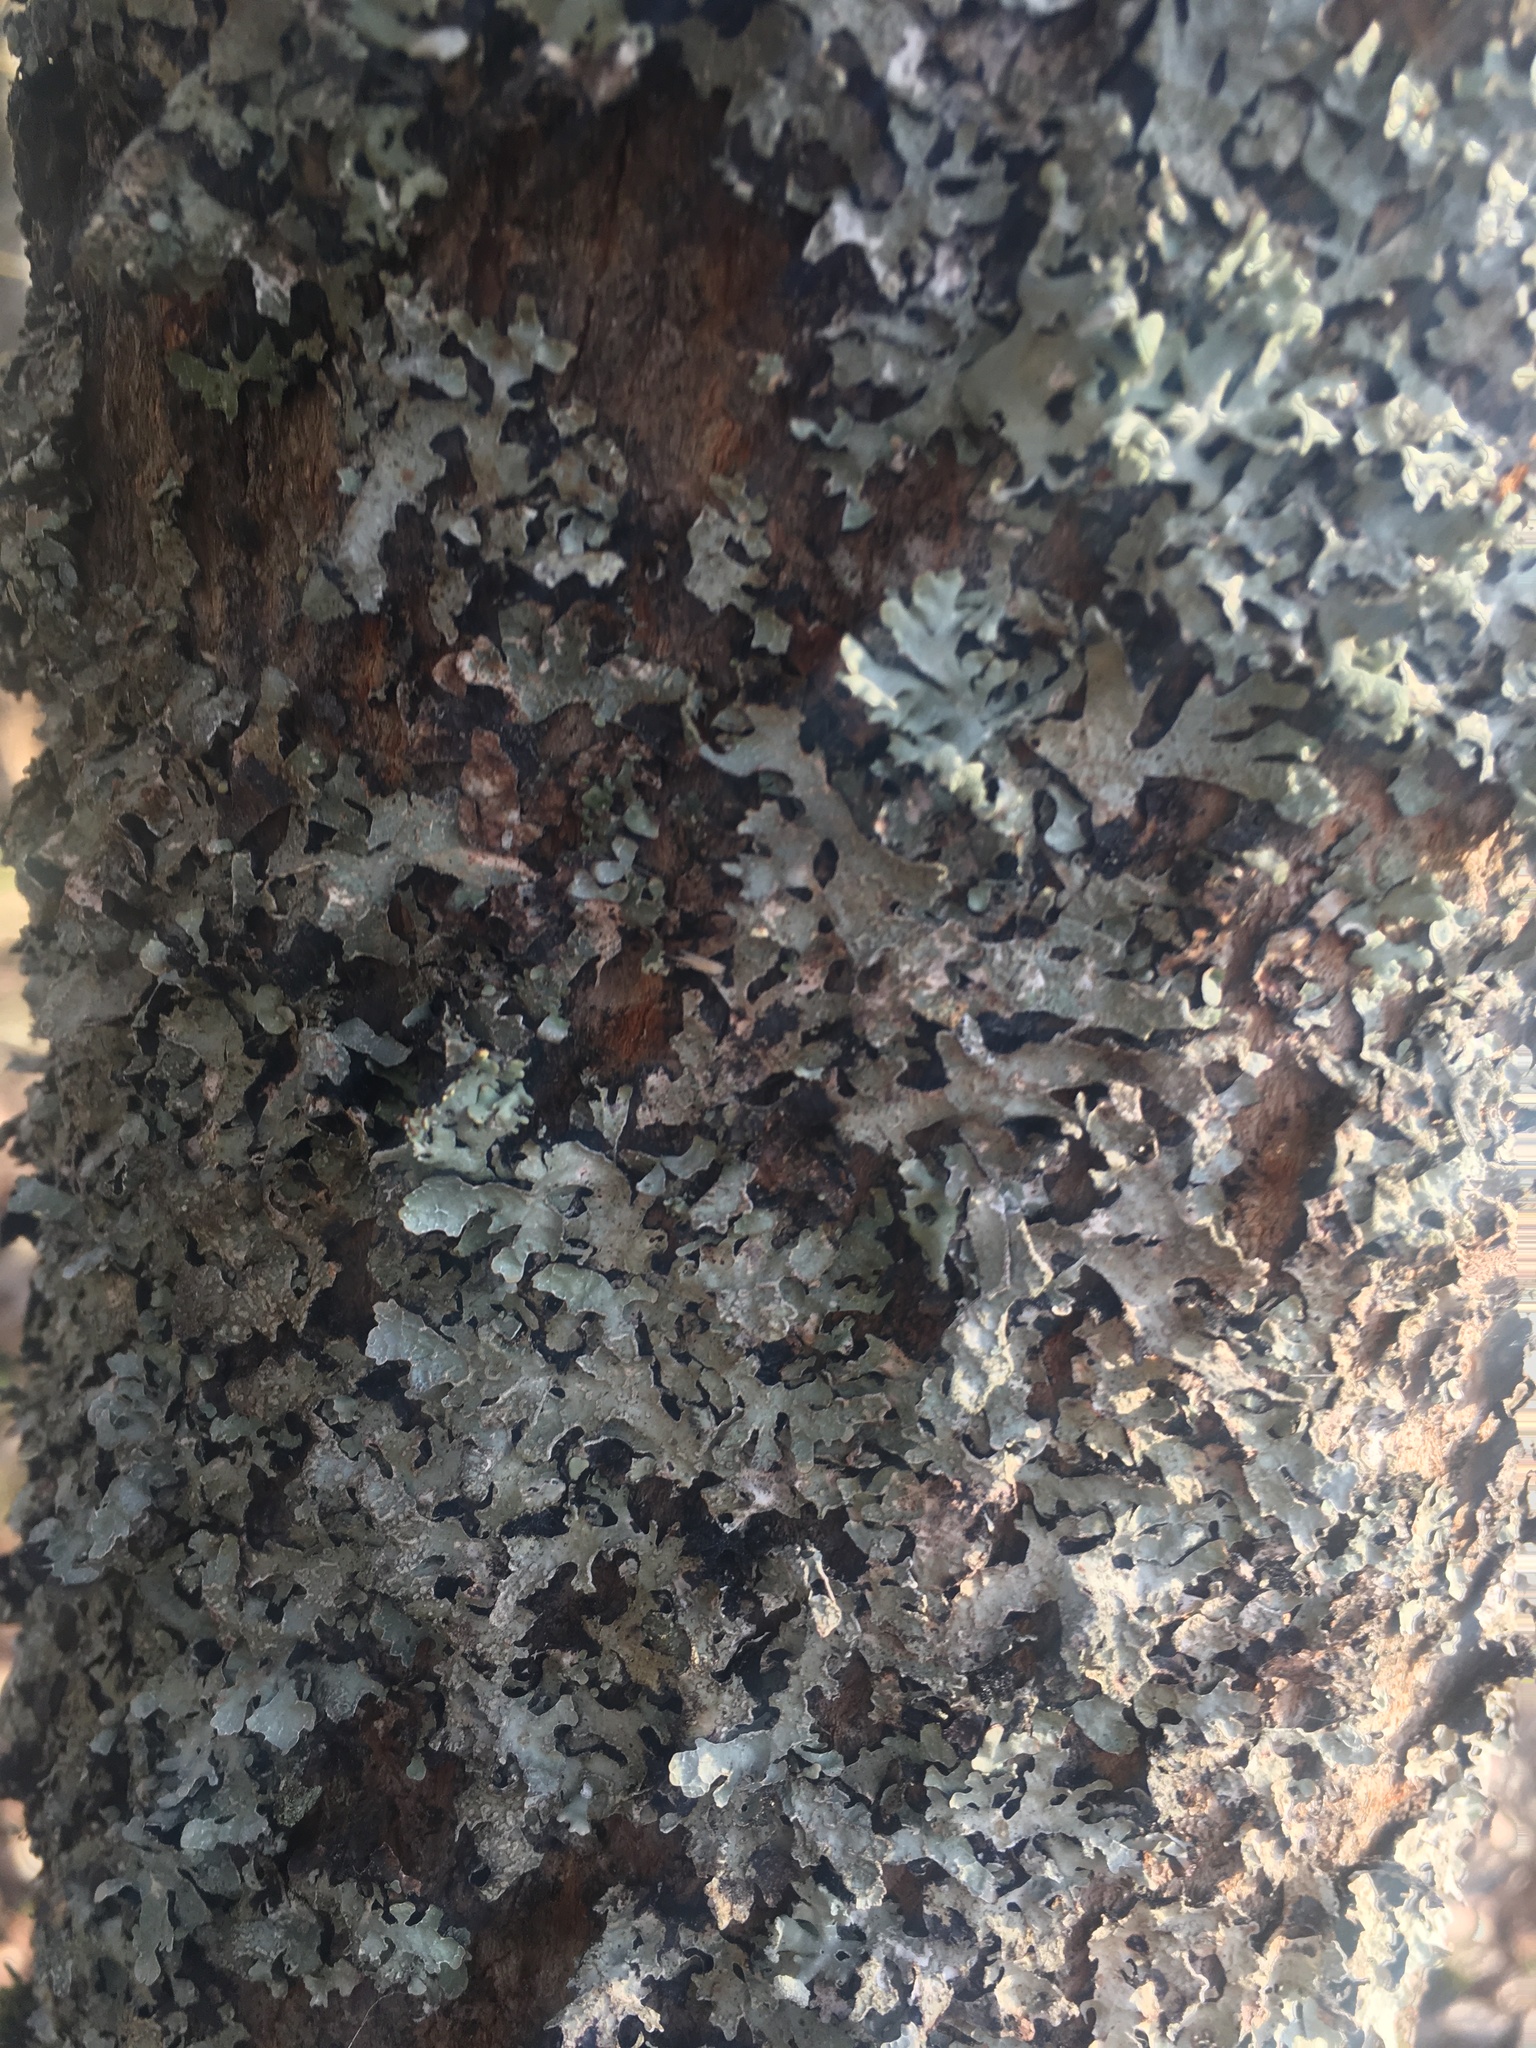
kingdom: Fungi
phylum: Ascomycota
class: Lecanoromycetes
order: Lecanorales
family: Parmeliaceae
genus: Parmelia
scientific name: Parmelia sulcata
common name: Netted shield lichen
